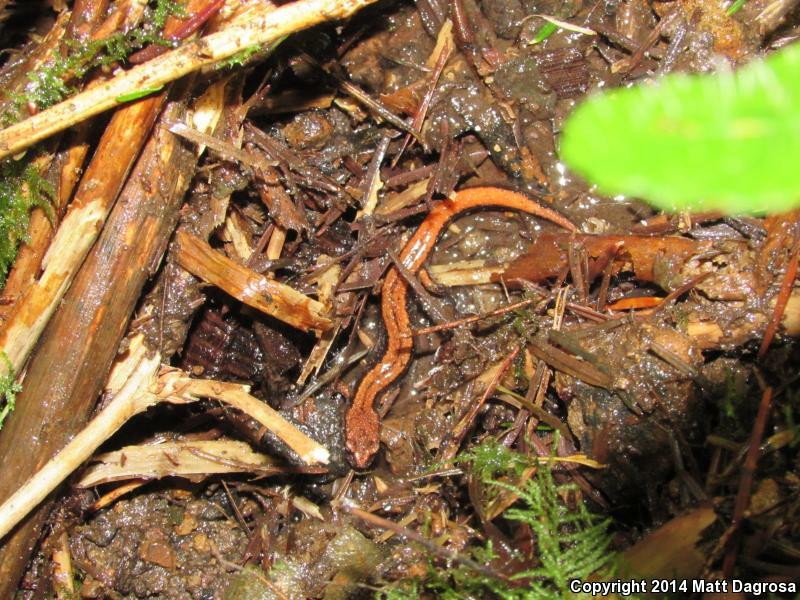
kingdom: Animalia
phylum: Chordata
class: Amphibia
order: Caudata
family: Plethodontidae
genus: Plethodon
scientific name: Plethodon vehiculum
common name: Western red-backed salamander
